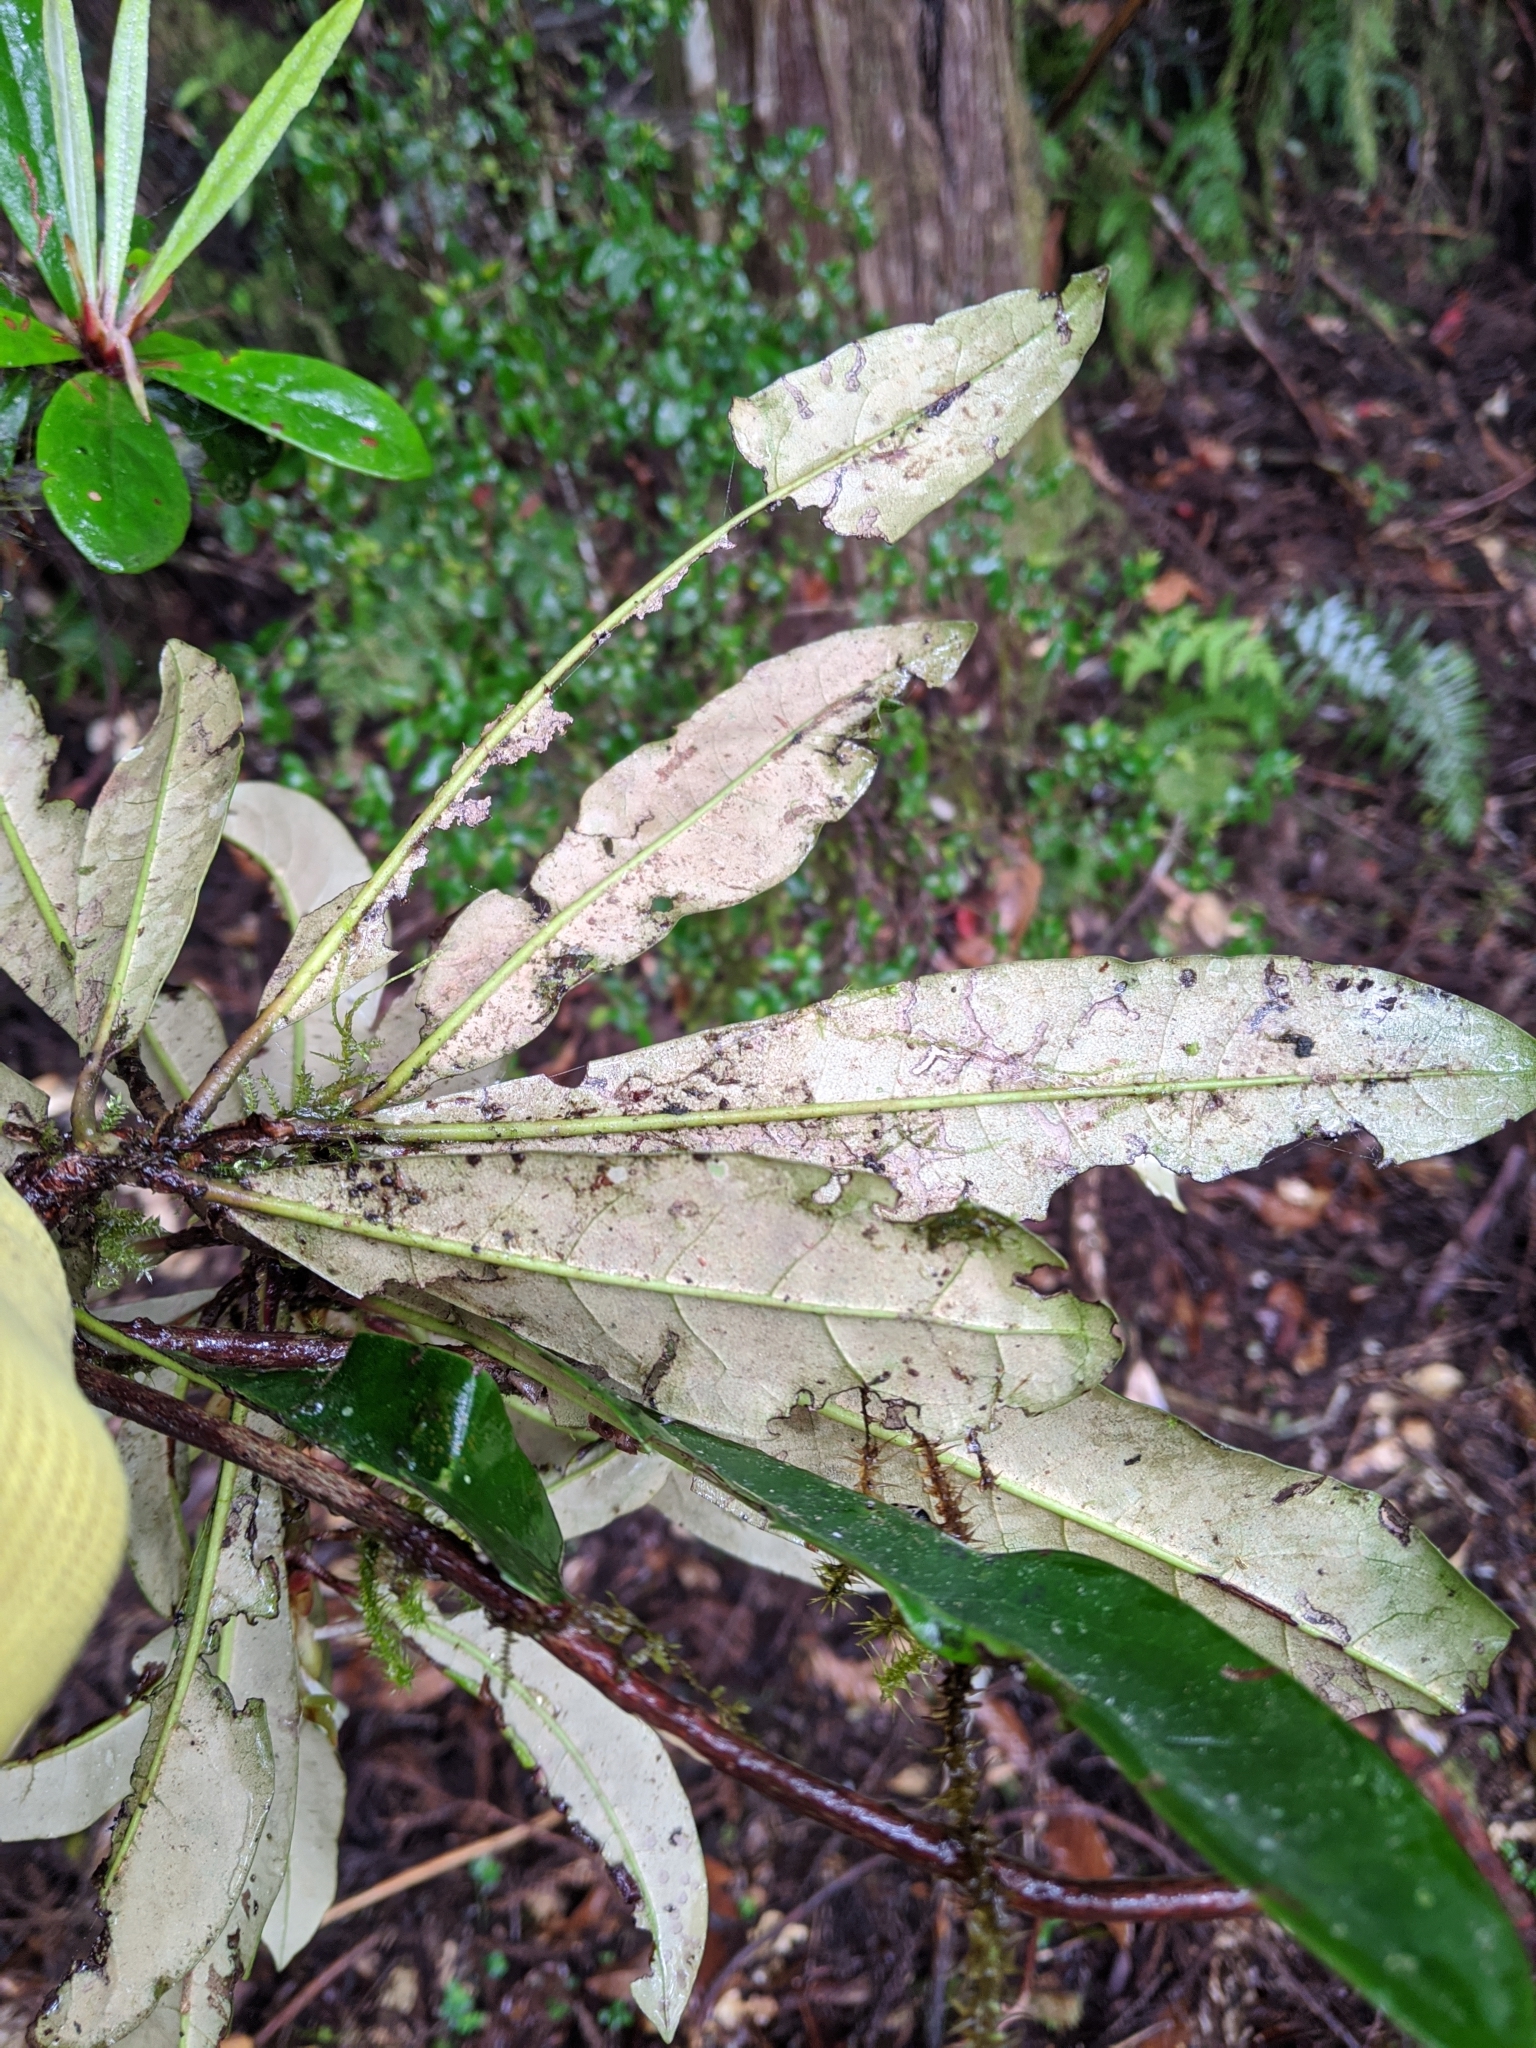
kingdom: Plantae
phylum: Tracheophyta
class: Magnoliopsida
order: Ericales
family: Ericaceae
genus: Rhododendron
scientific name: Rhododendron formosanum
